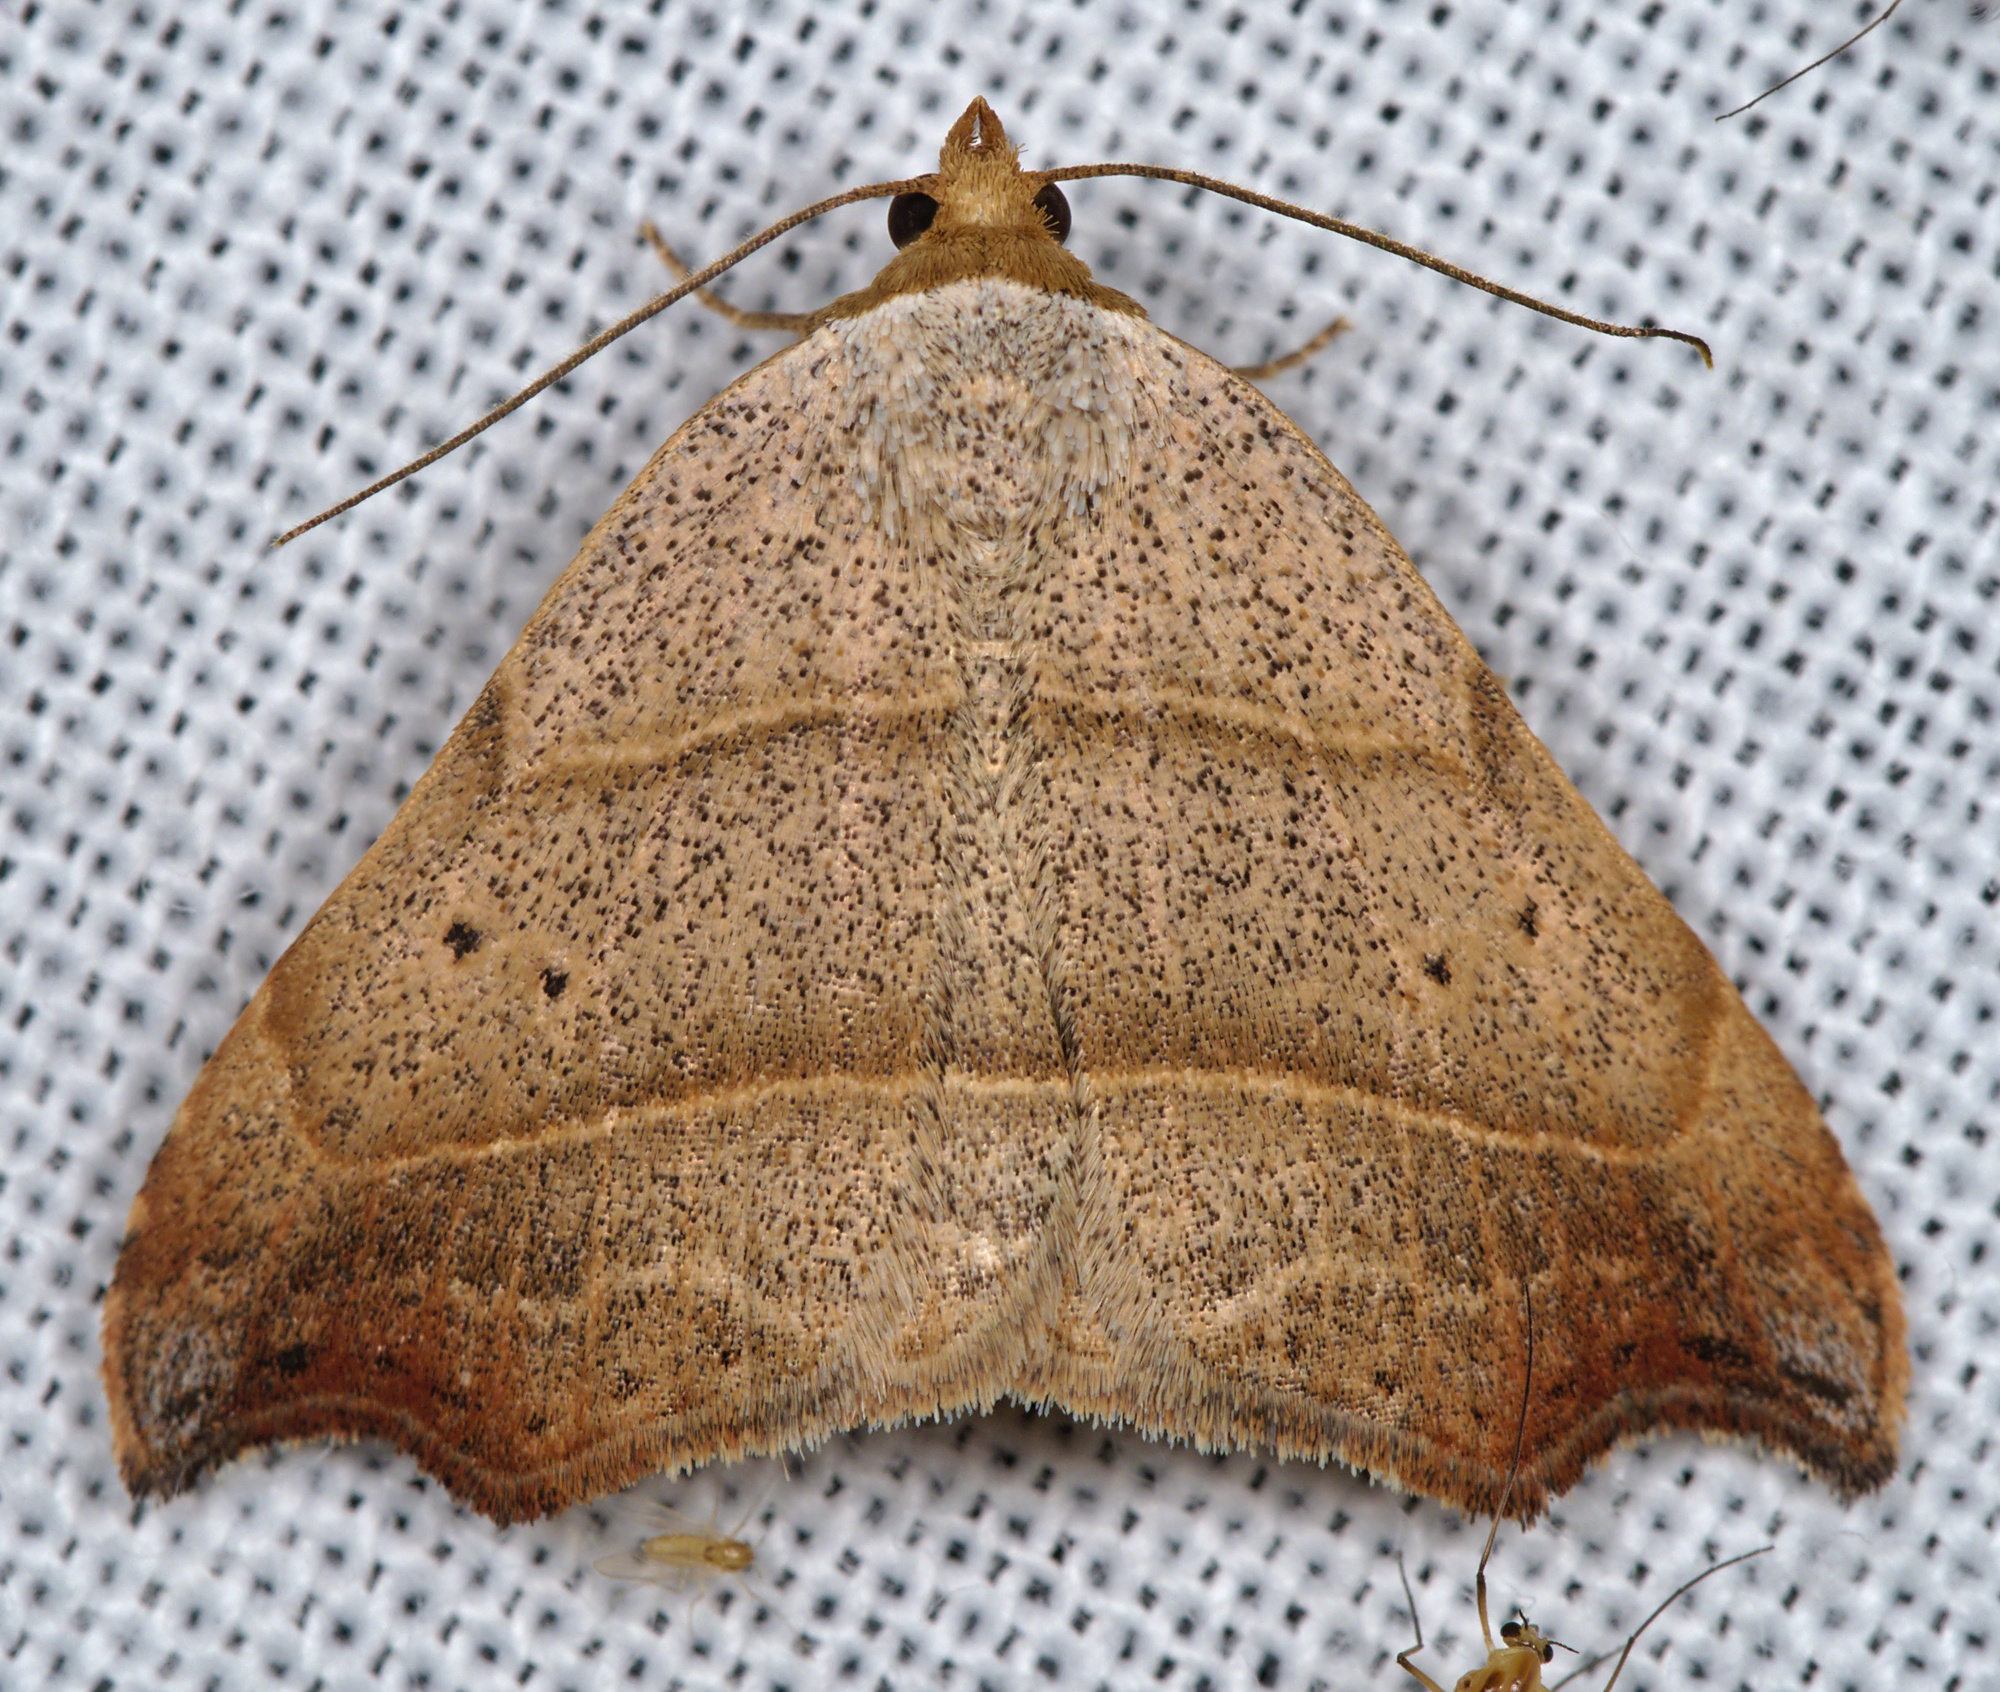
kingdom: Animalia
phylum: Arthropoda
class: Insecta
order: Lepidoptera
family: Erebidae
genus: Laspeyria
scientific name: Laspeyria flexula
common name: Beautiful hook-tip
